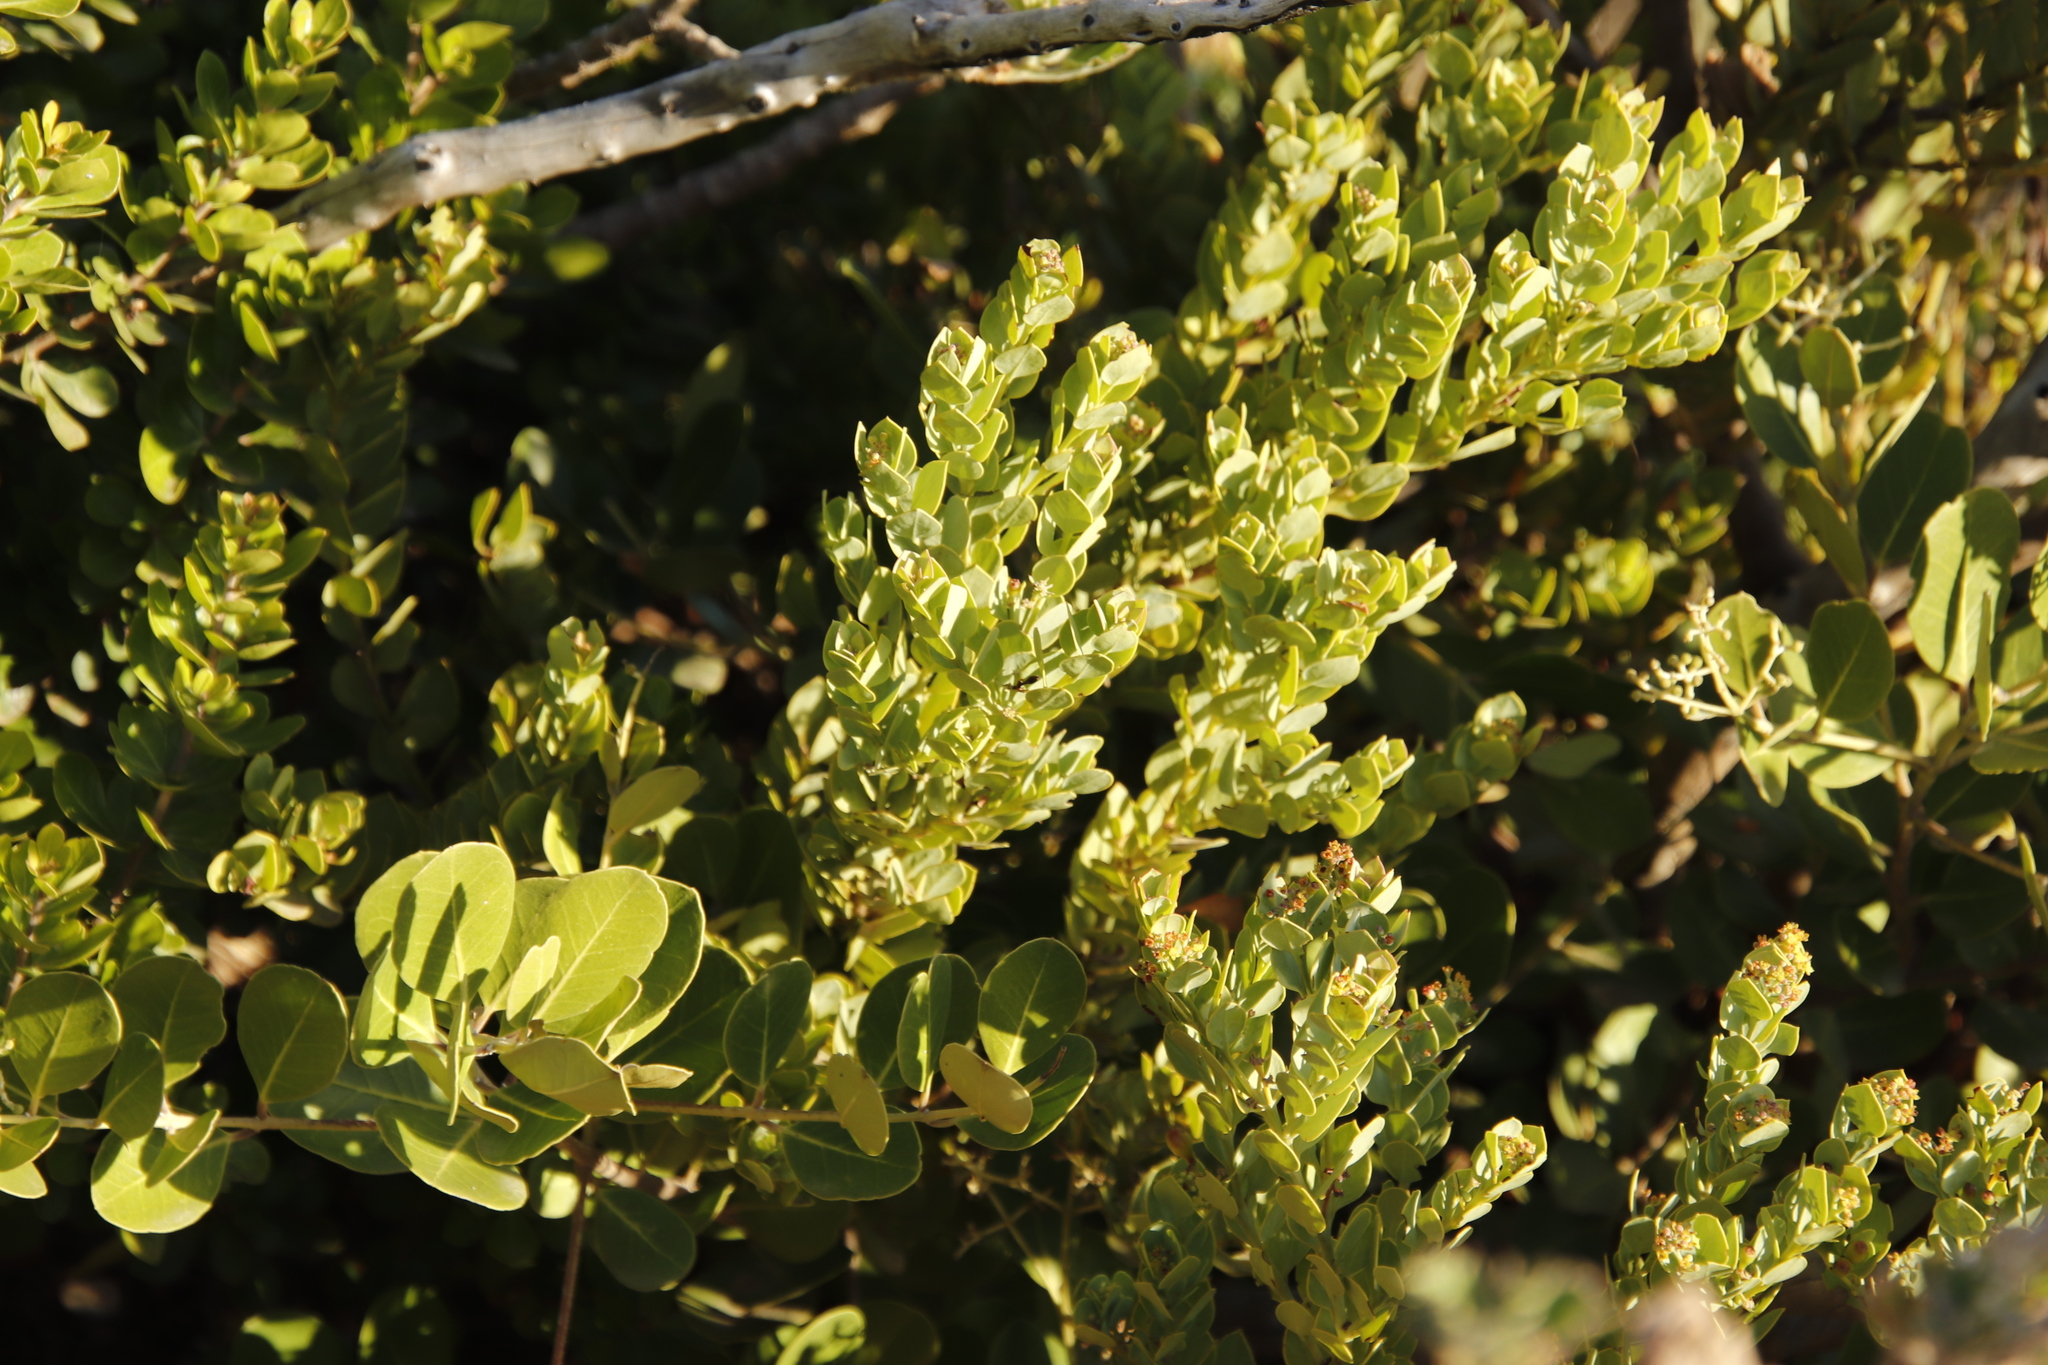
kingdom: Plantae
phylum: Tracheophyta
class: Magnoliopsida
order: Santalales
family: Santalaceae
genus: Osyris
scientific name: Osyris compressa
